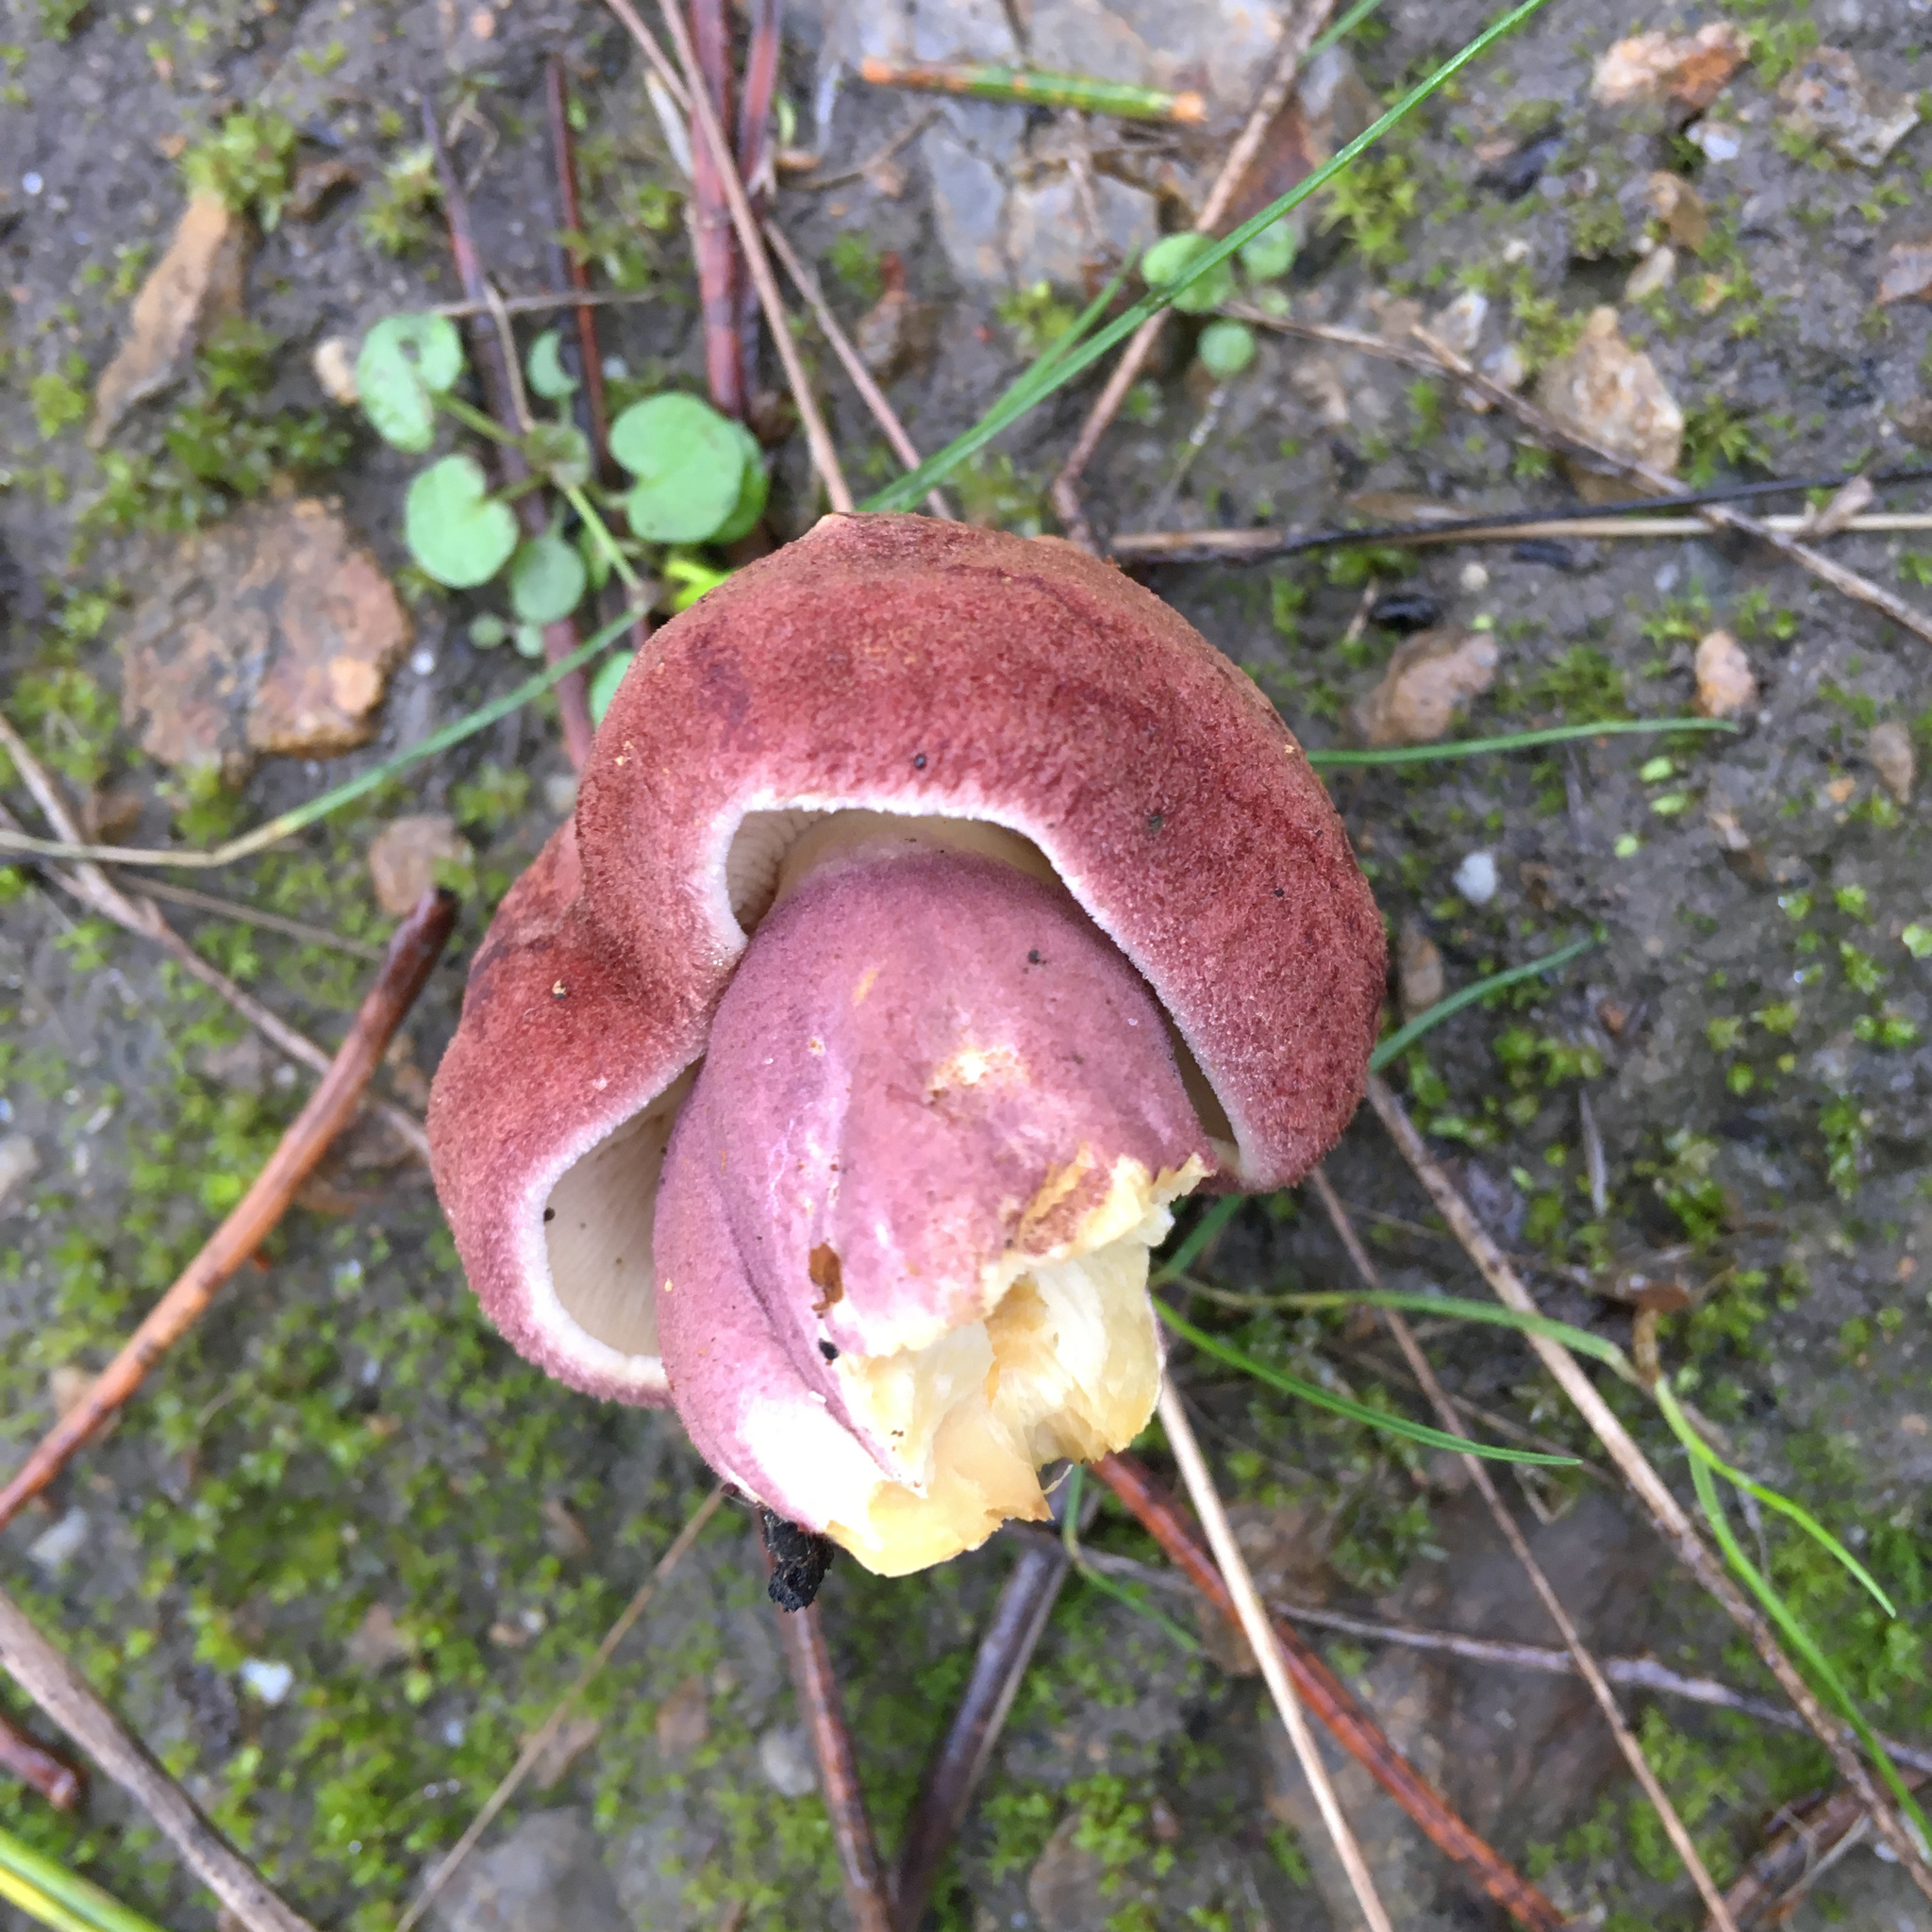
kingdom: Fungi
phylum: Basidiomycota
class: Agaricomycetes
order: Agaricales
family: Tricholomataceae
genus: Tricholomopsis
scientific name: Tricholomopsis rutilans
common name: Plums and custard
